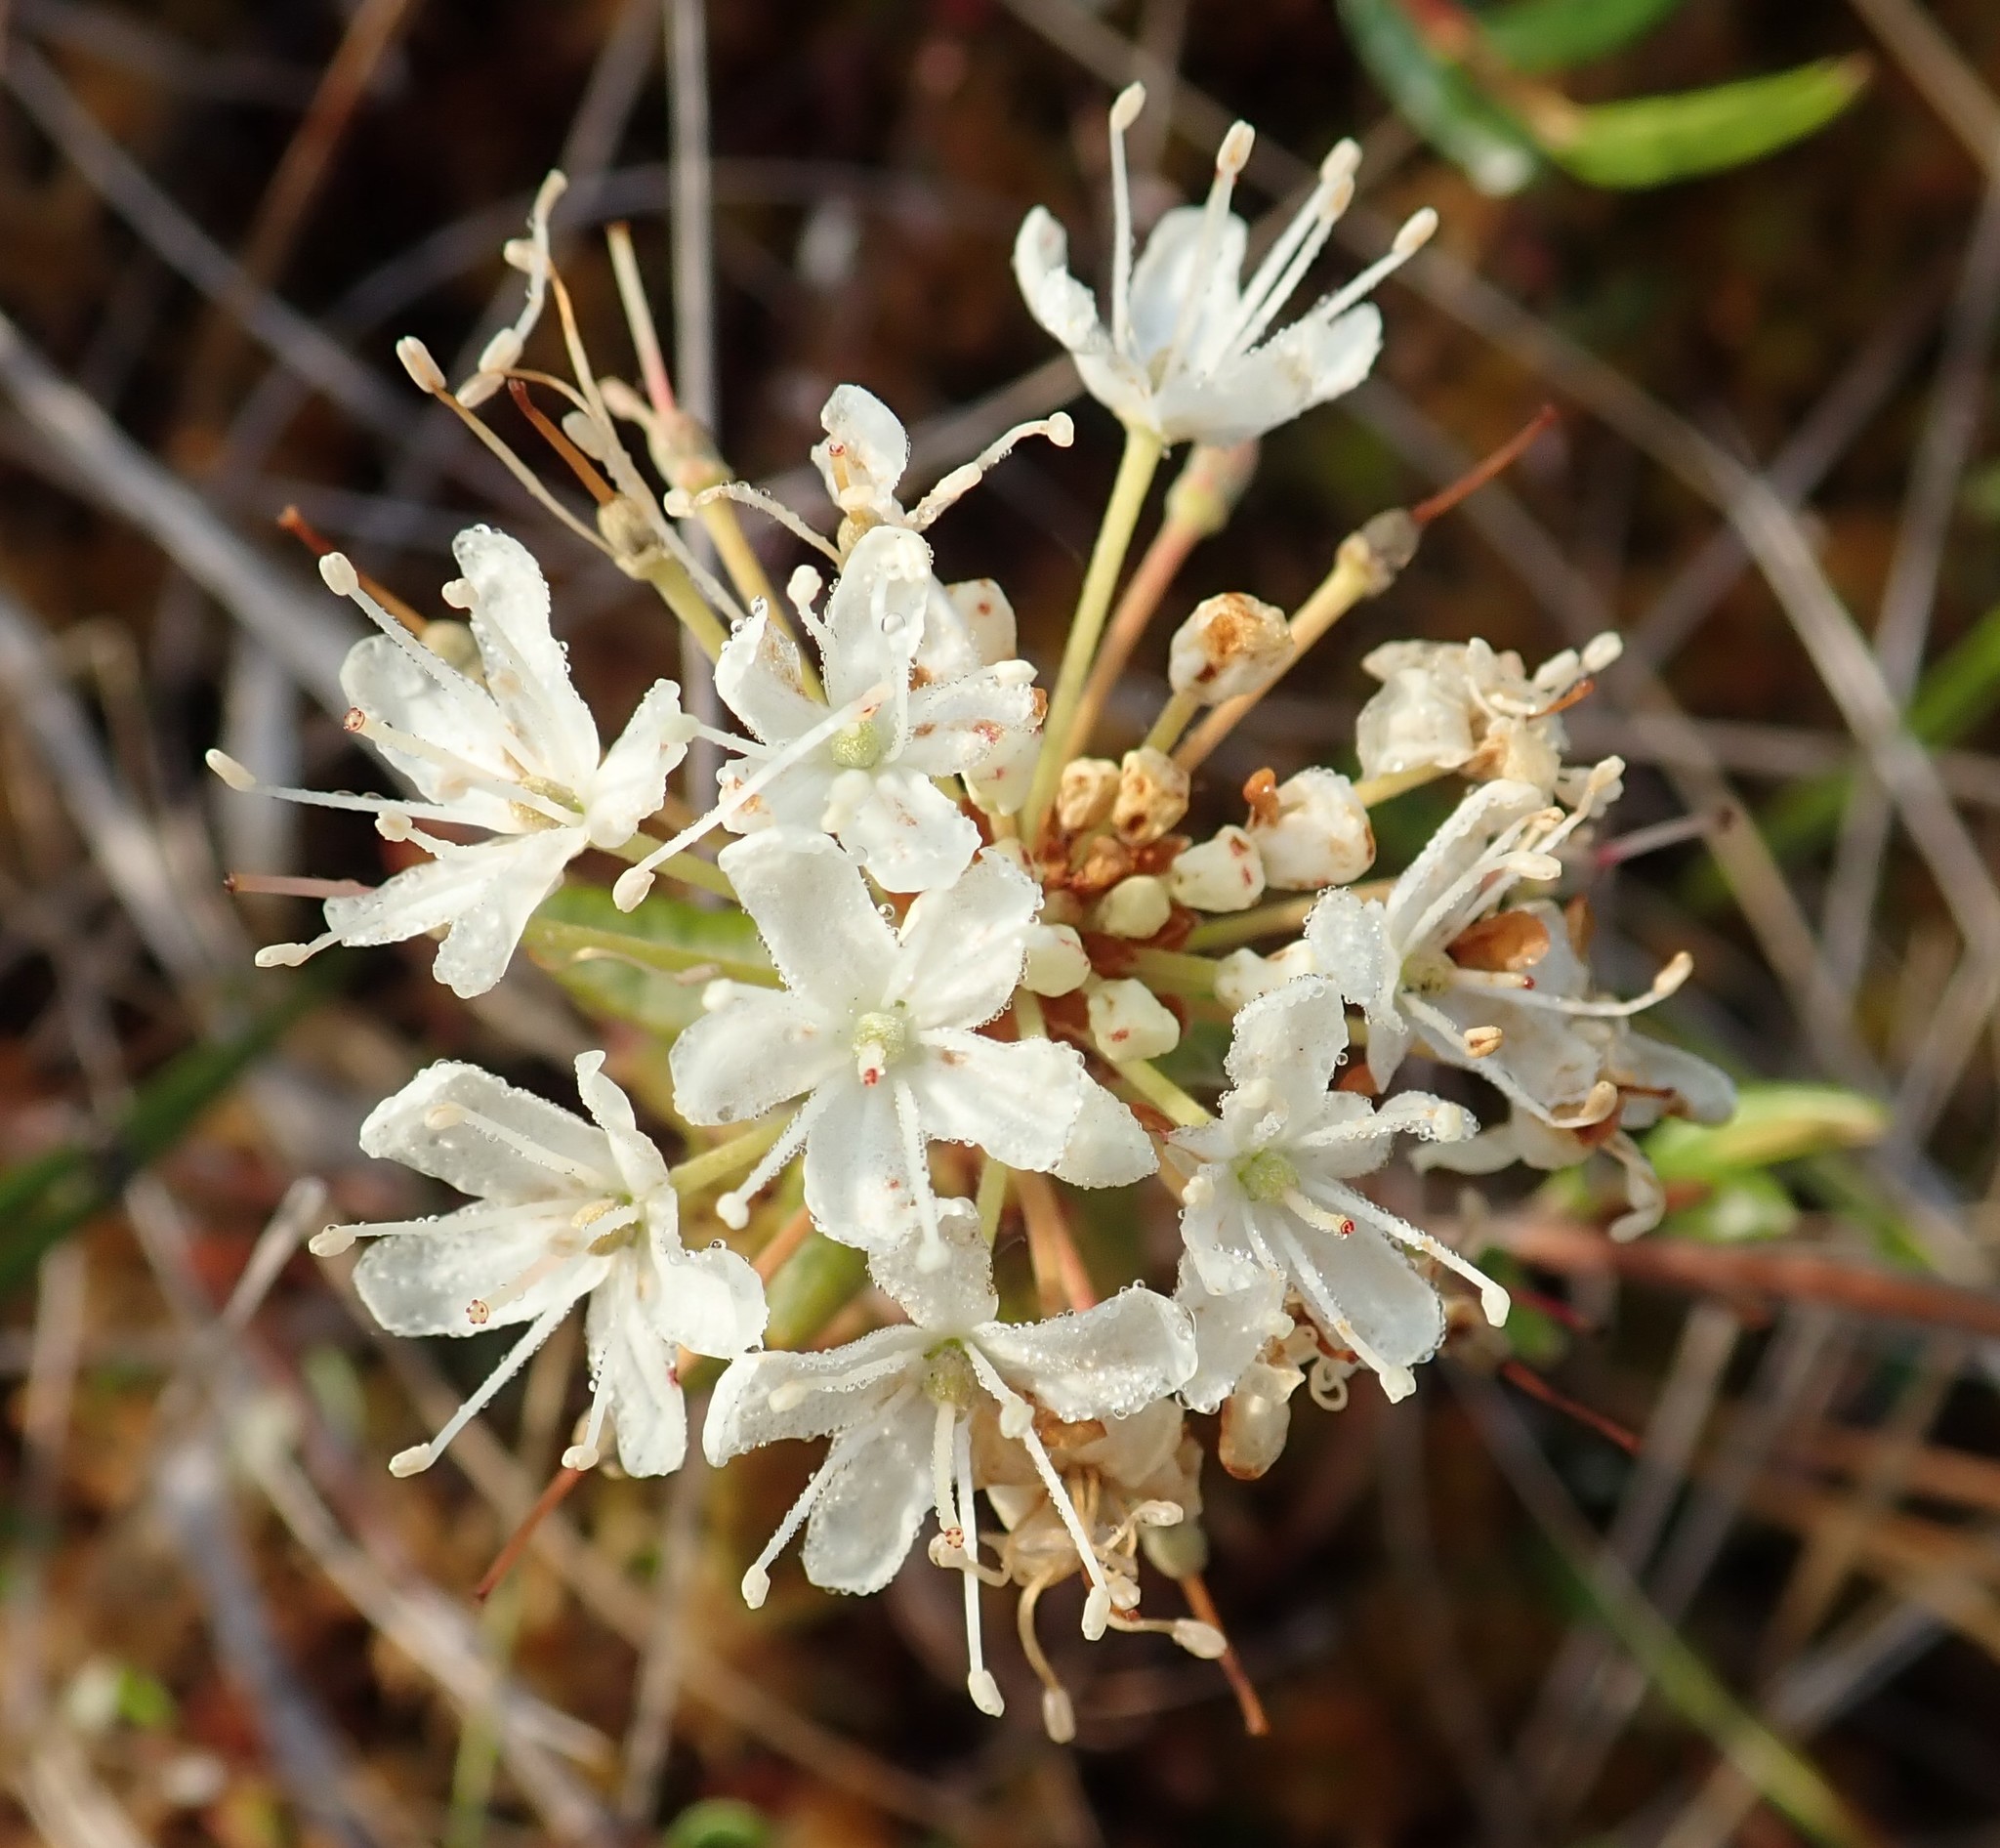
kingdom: Plantae
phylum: Tracheophyta
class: Magnoliopsida
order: Ericales
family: Ericaceae
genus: Rhododendron
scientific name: Rhododendron groenlandicum
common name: Bog labrador tea
